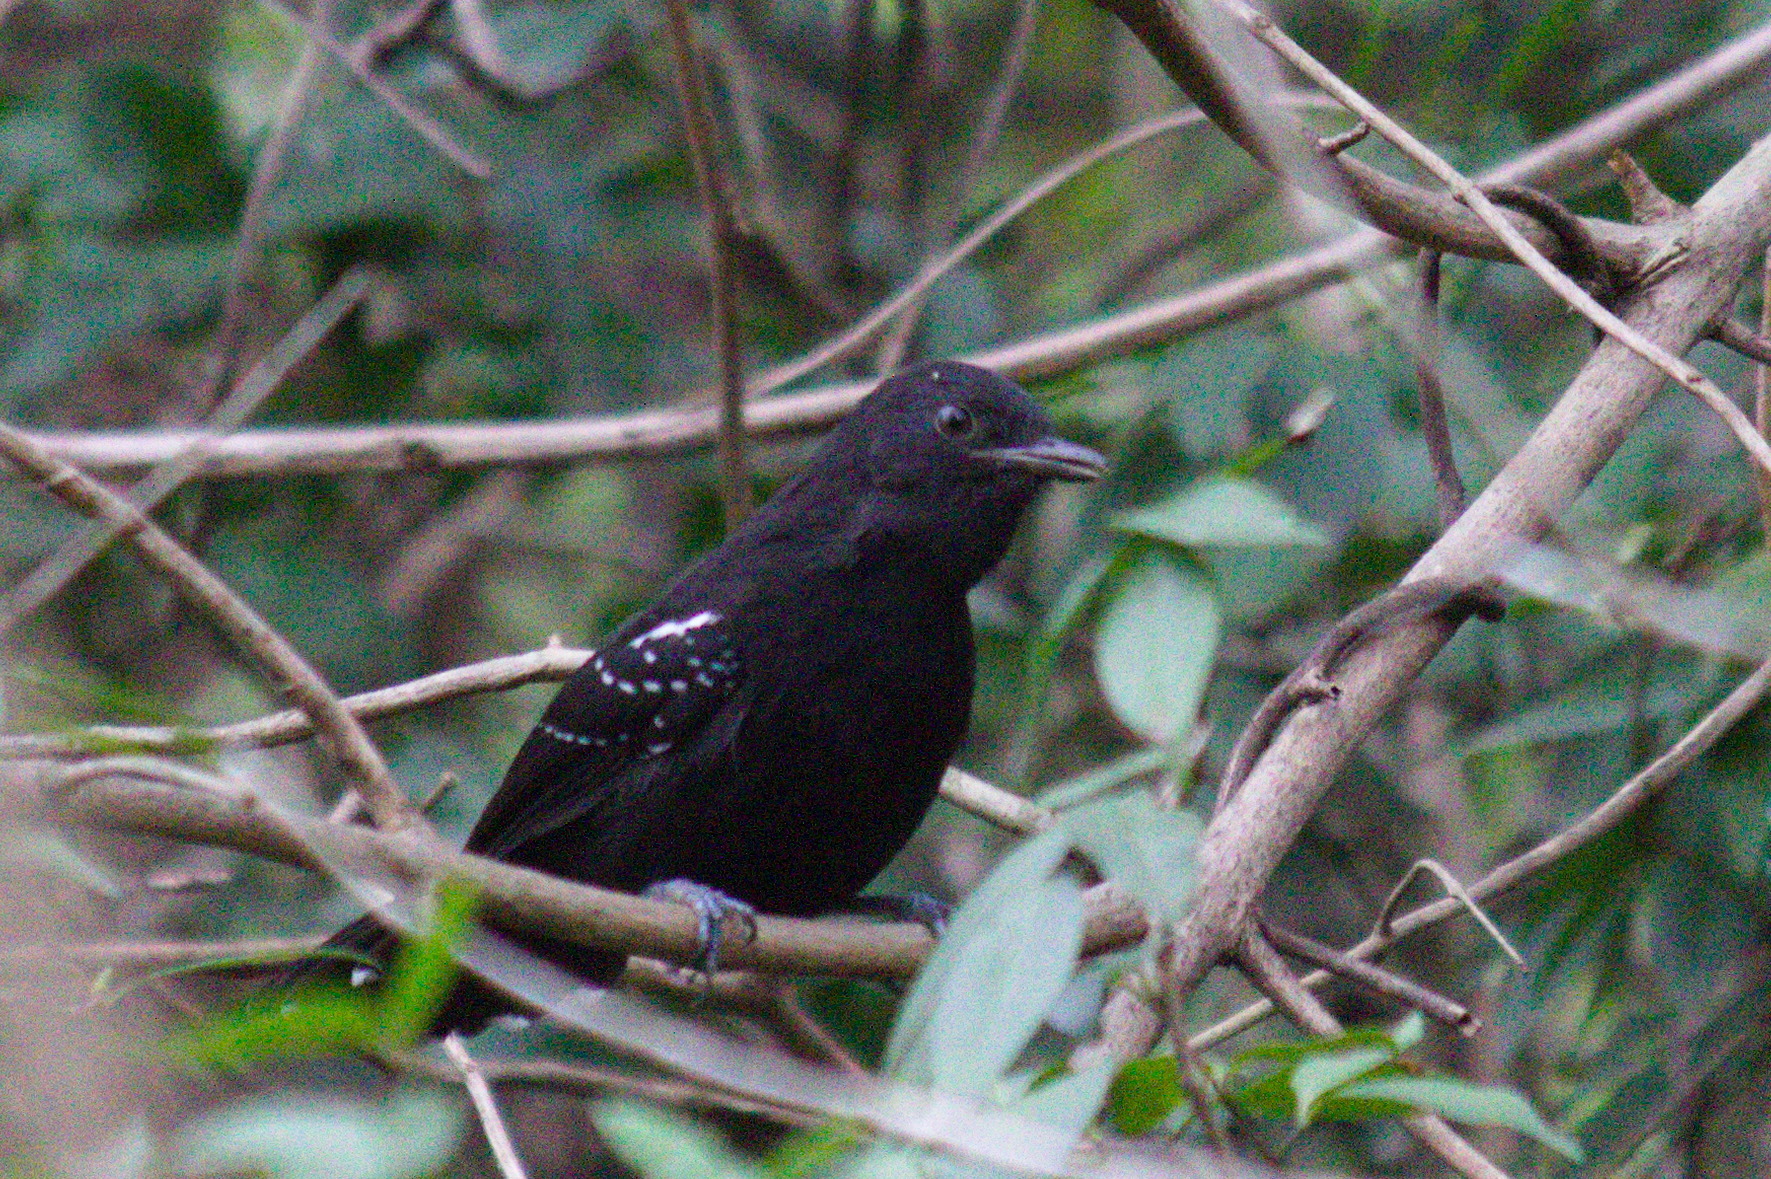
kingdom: Animalia
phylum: Chordata
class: Aves
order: Passeriformes
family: Thamnophilidae
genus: Cercomacra
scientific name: Cercomacra melanaria
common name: Mato grosso antbird
